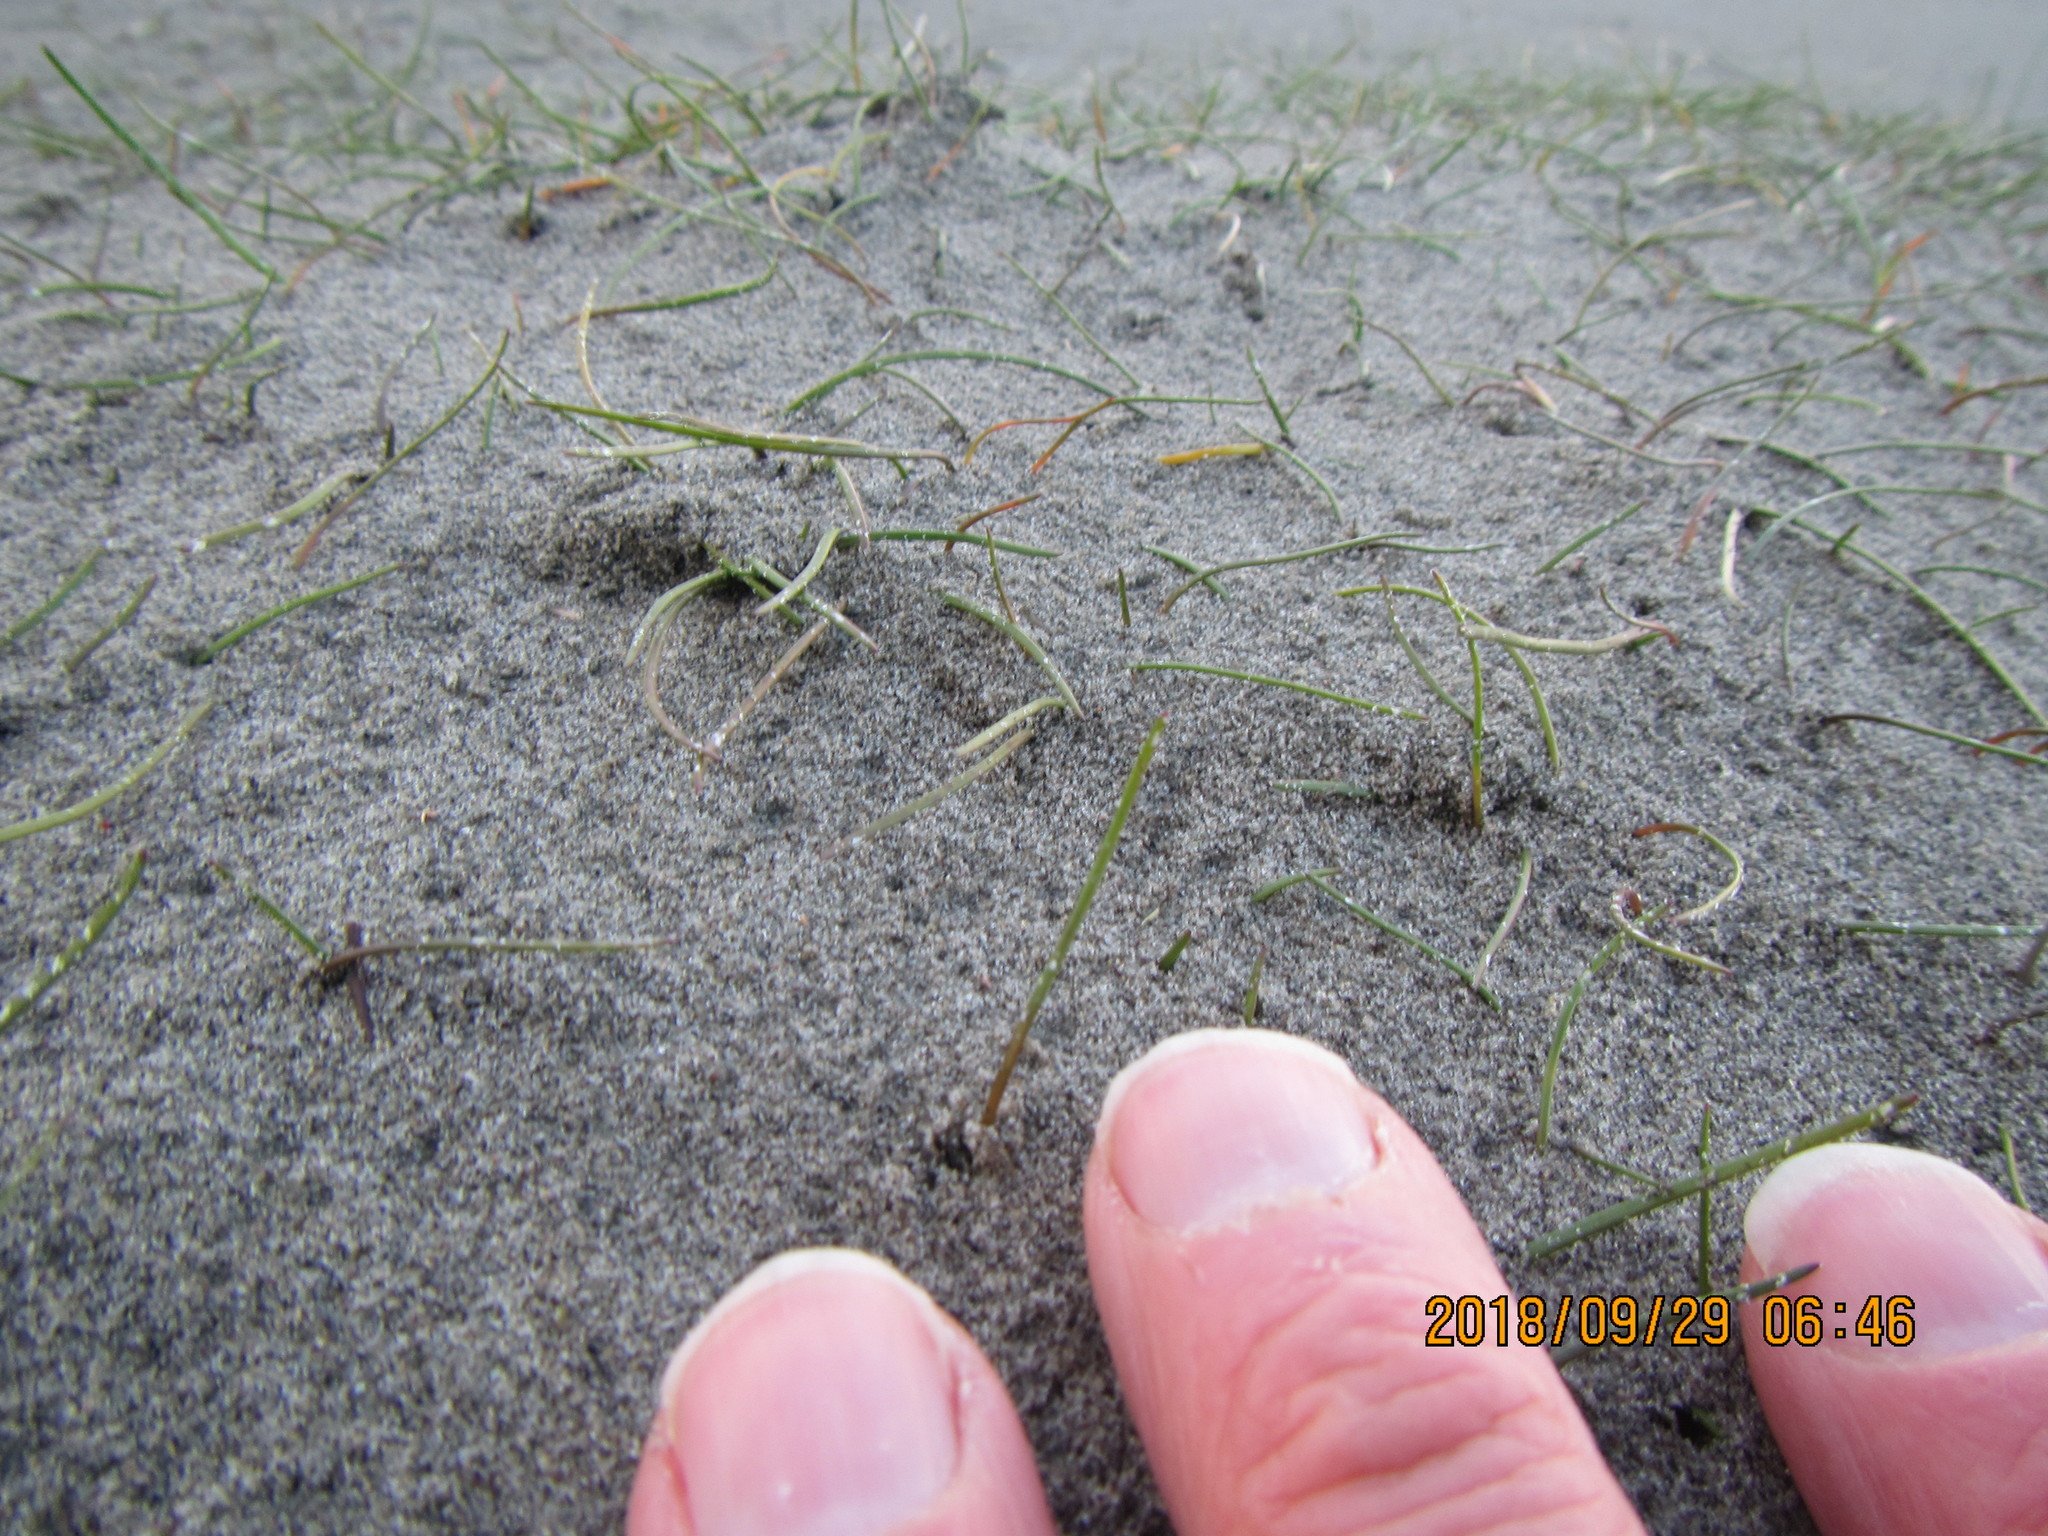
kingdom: Plantae
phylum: Tracheophyta
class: Liliopsida
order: Alismatales
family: Juncaginaceae
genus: Triglochin
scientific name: Triglochin striata
